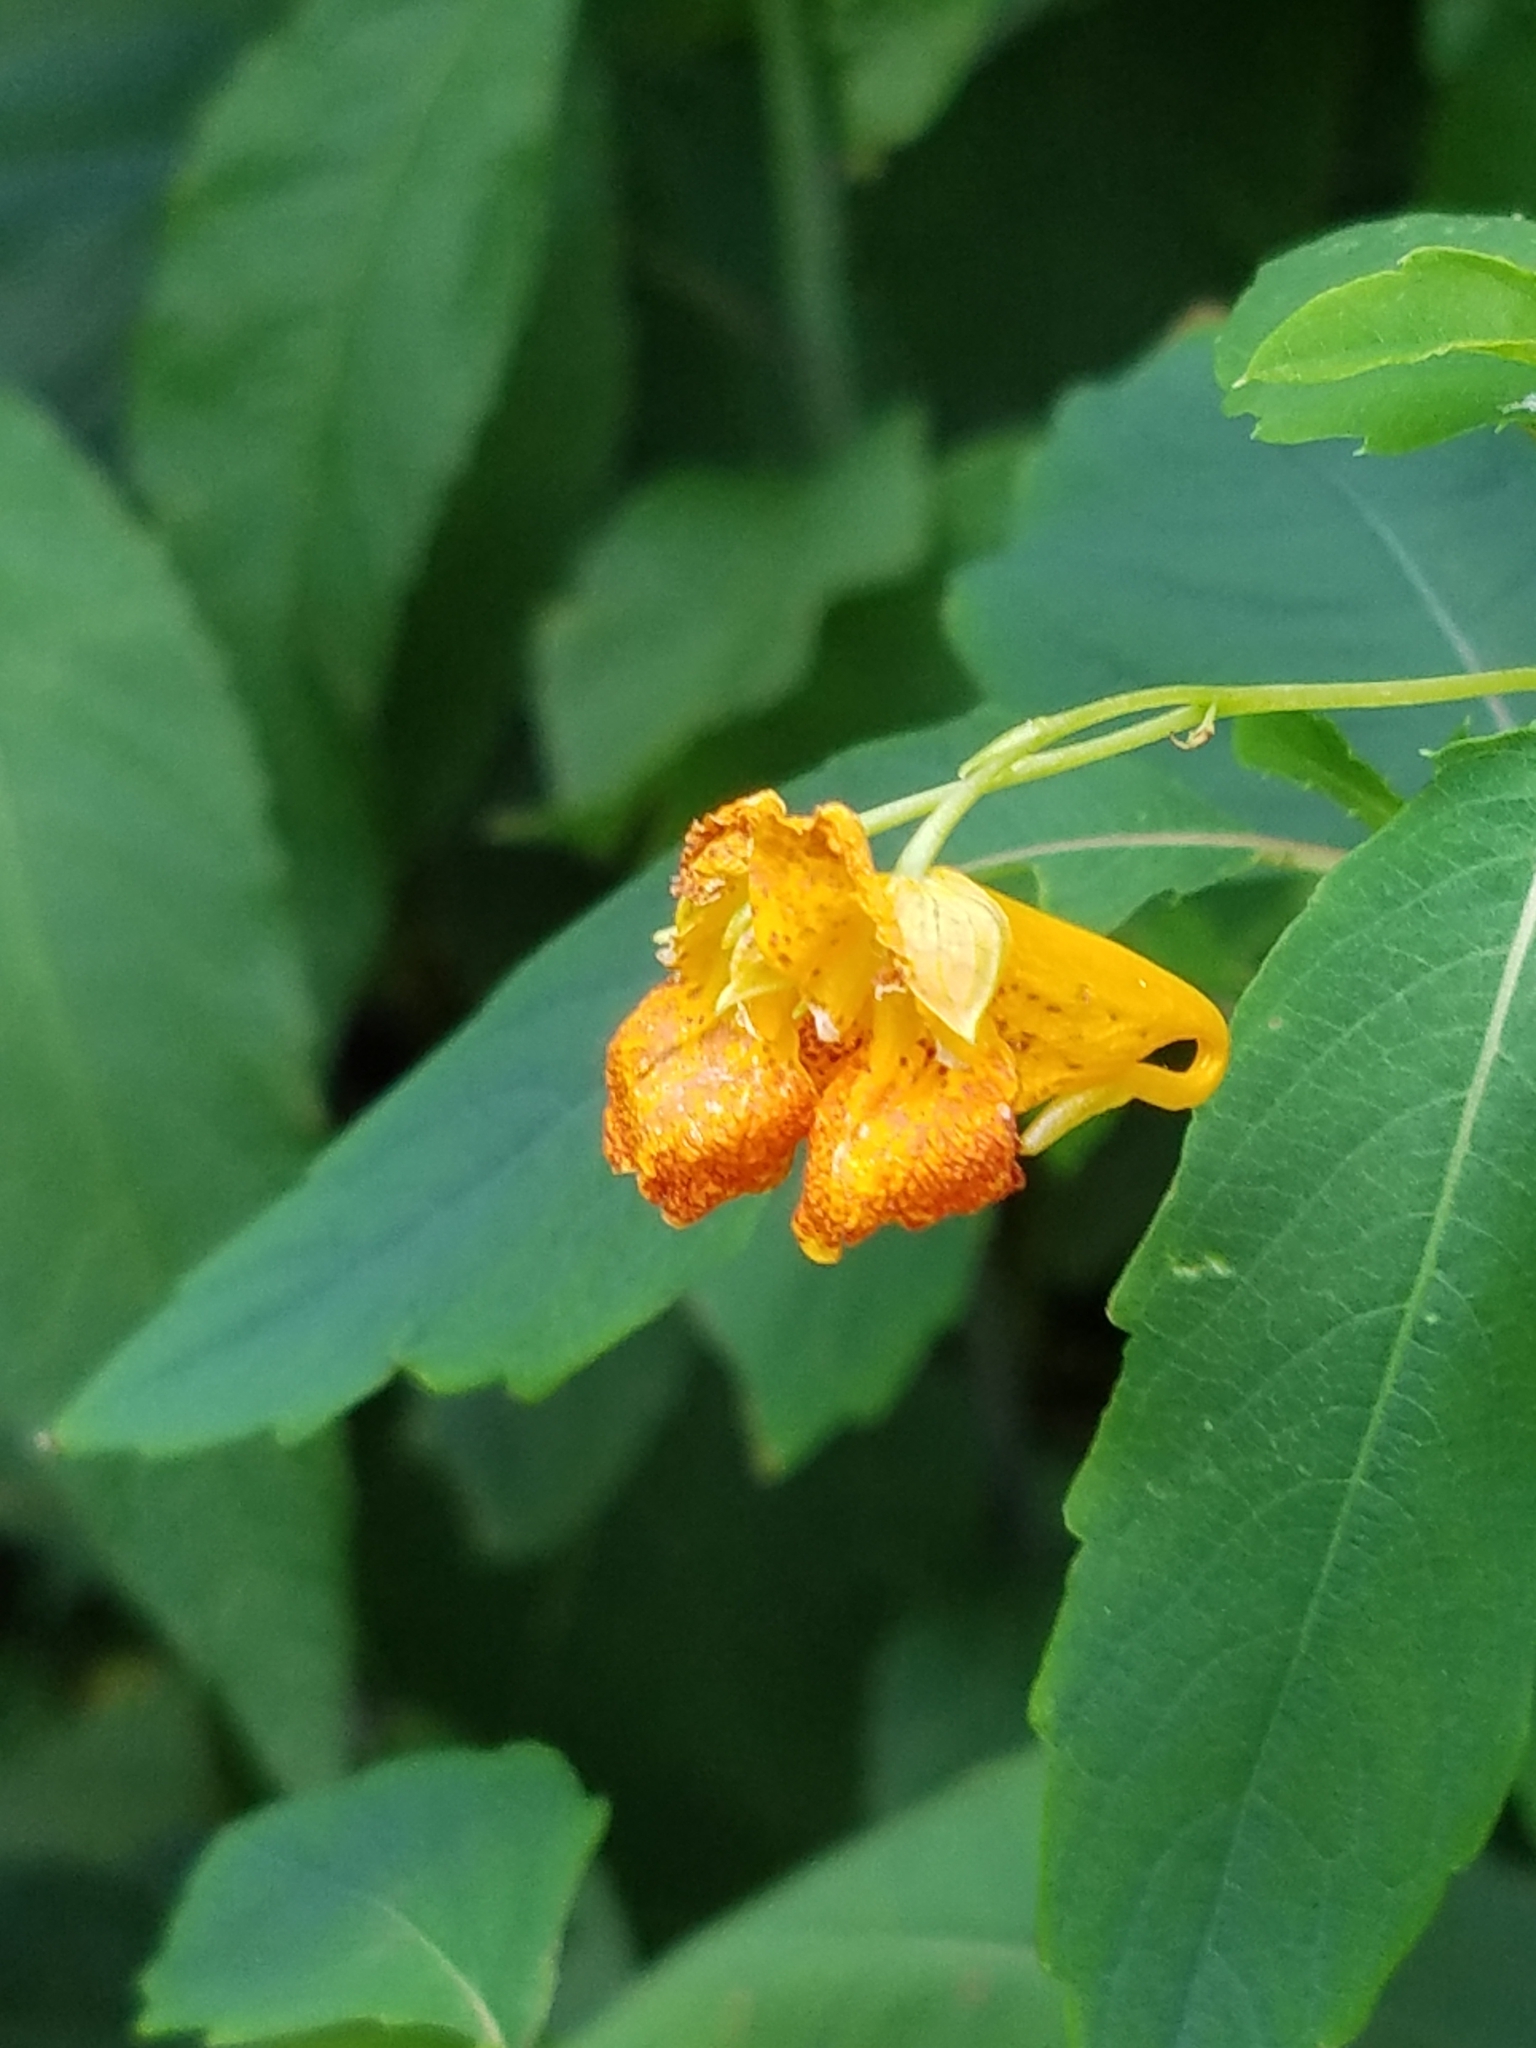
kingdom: Plantae
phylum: Tracheophyta
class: Magnoliopsida
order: Ericales
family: Balsaminaceae
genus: Impatiens
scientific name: Impatiens capensis
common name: Orange balsam
